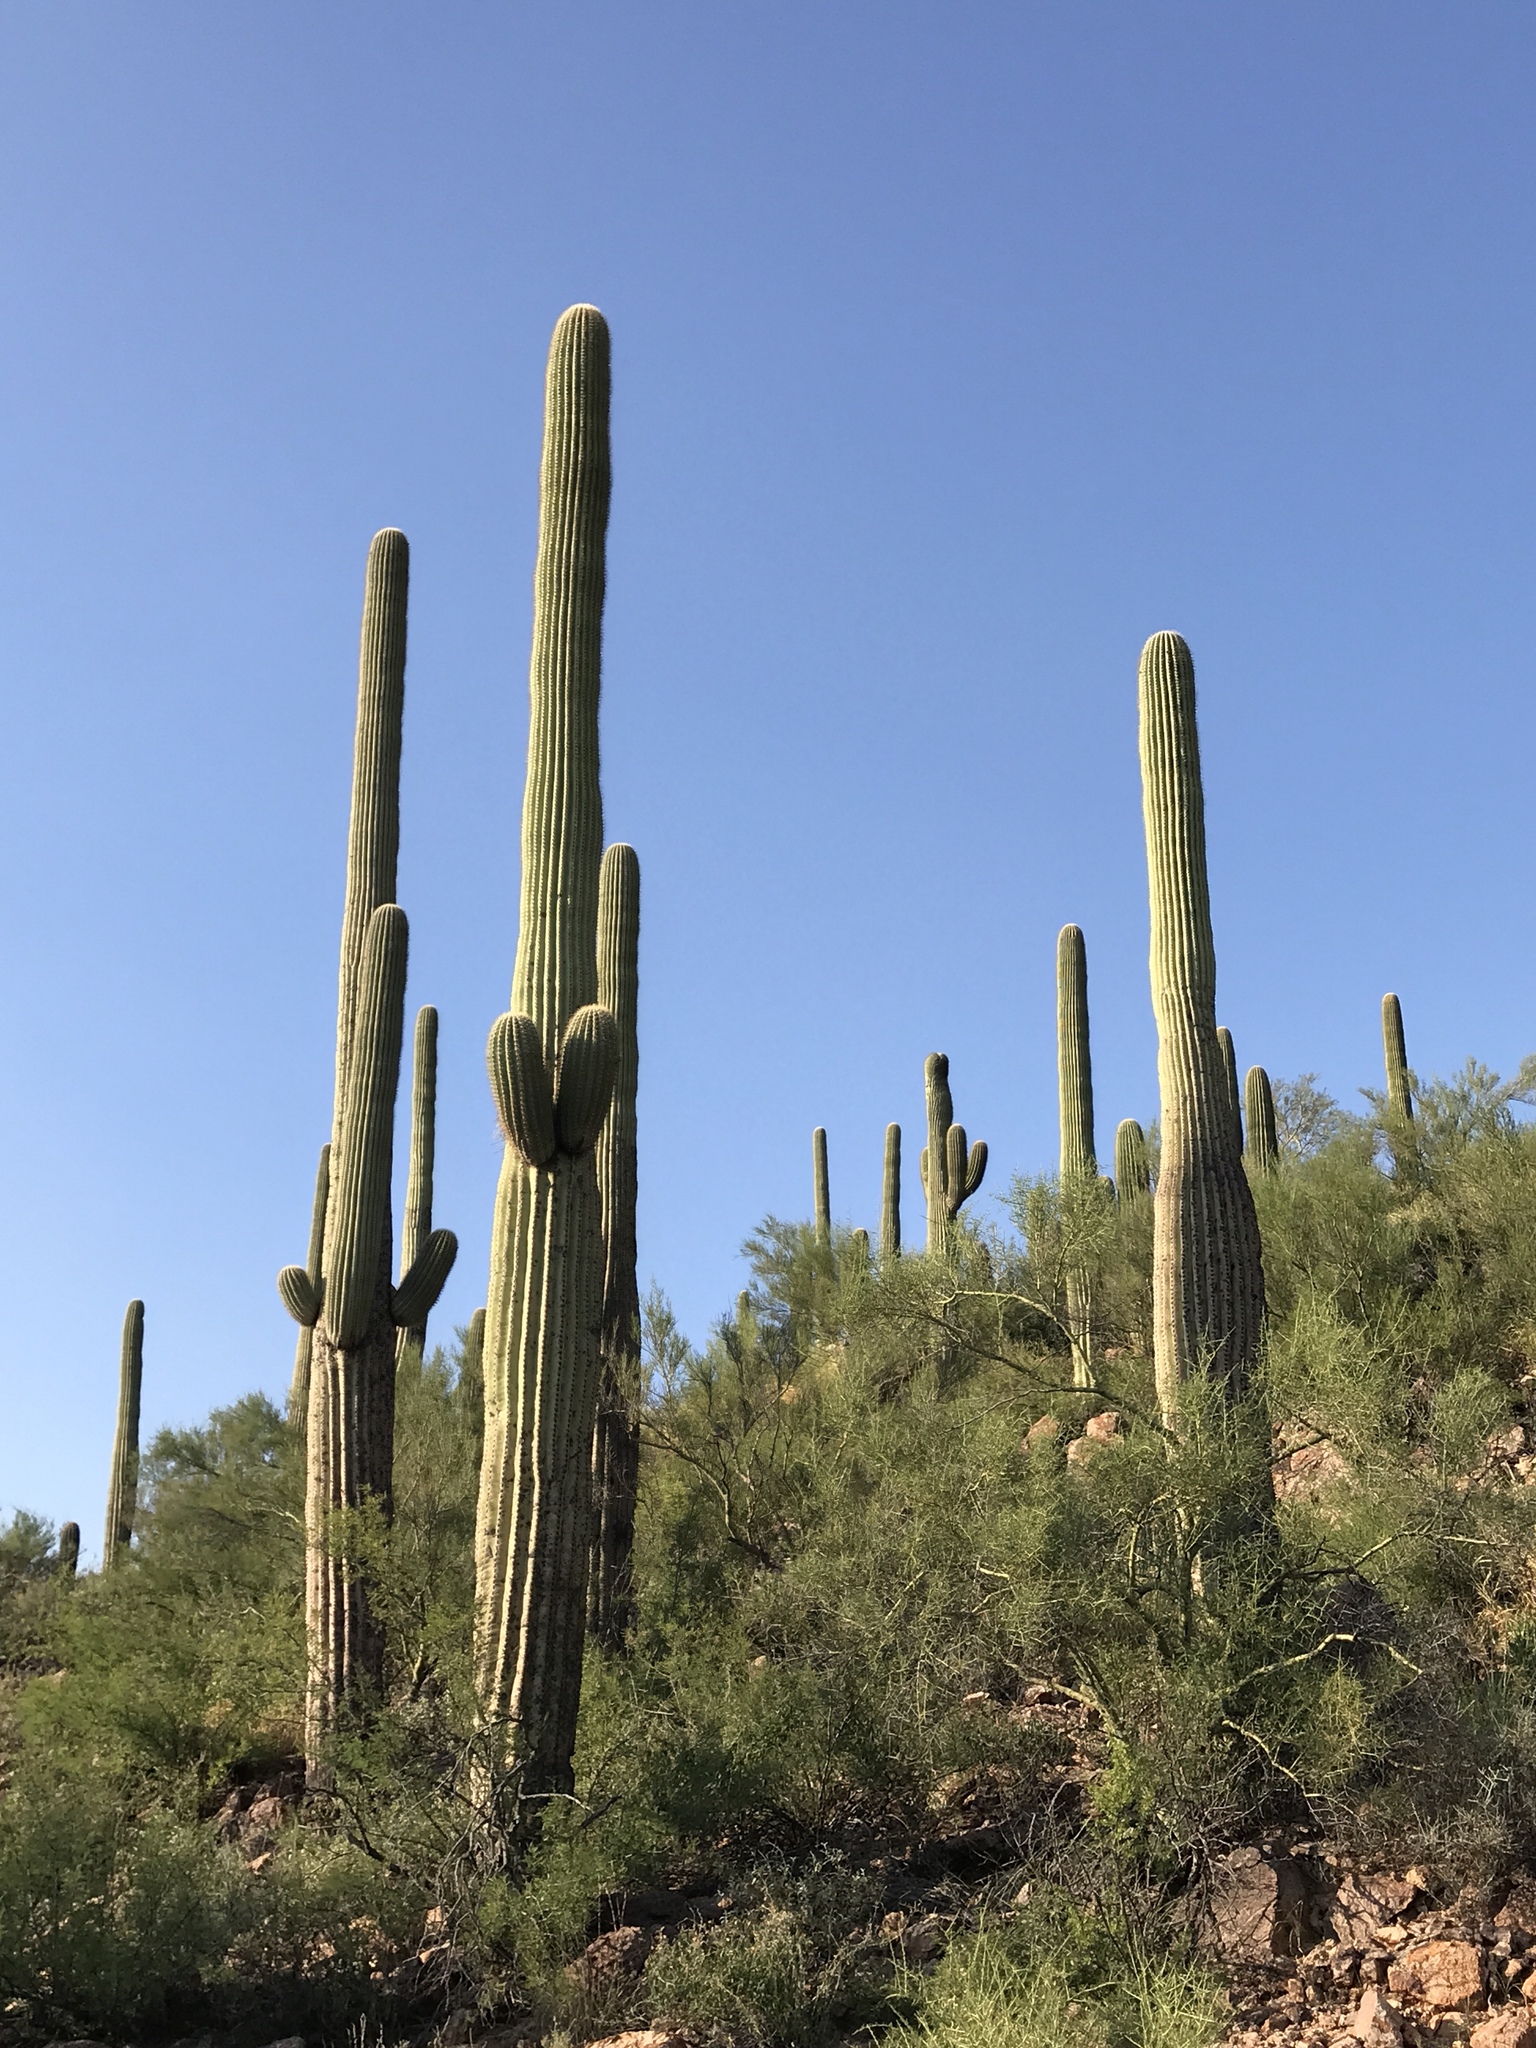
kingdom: Plantae
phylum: Tracheophyta
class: Magnoliopsida
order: Caryophyllales
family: Cactaceae
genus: Carnegiea
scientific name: Carnegiea gigantea
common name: Saguaro
